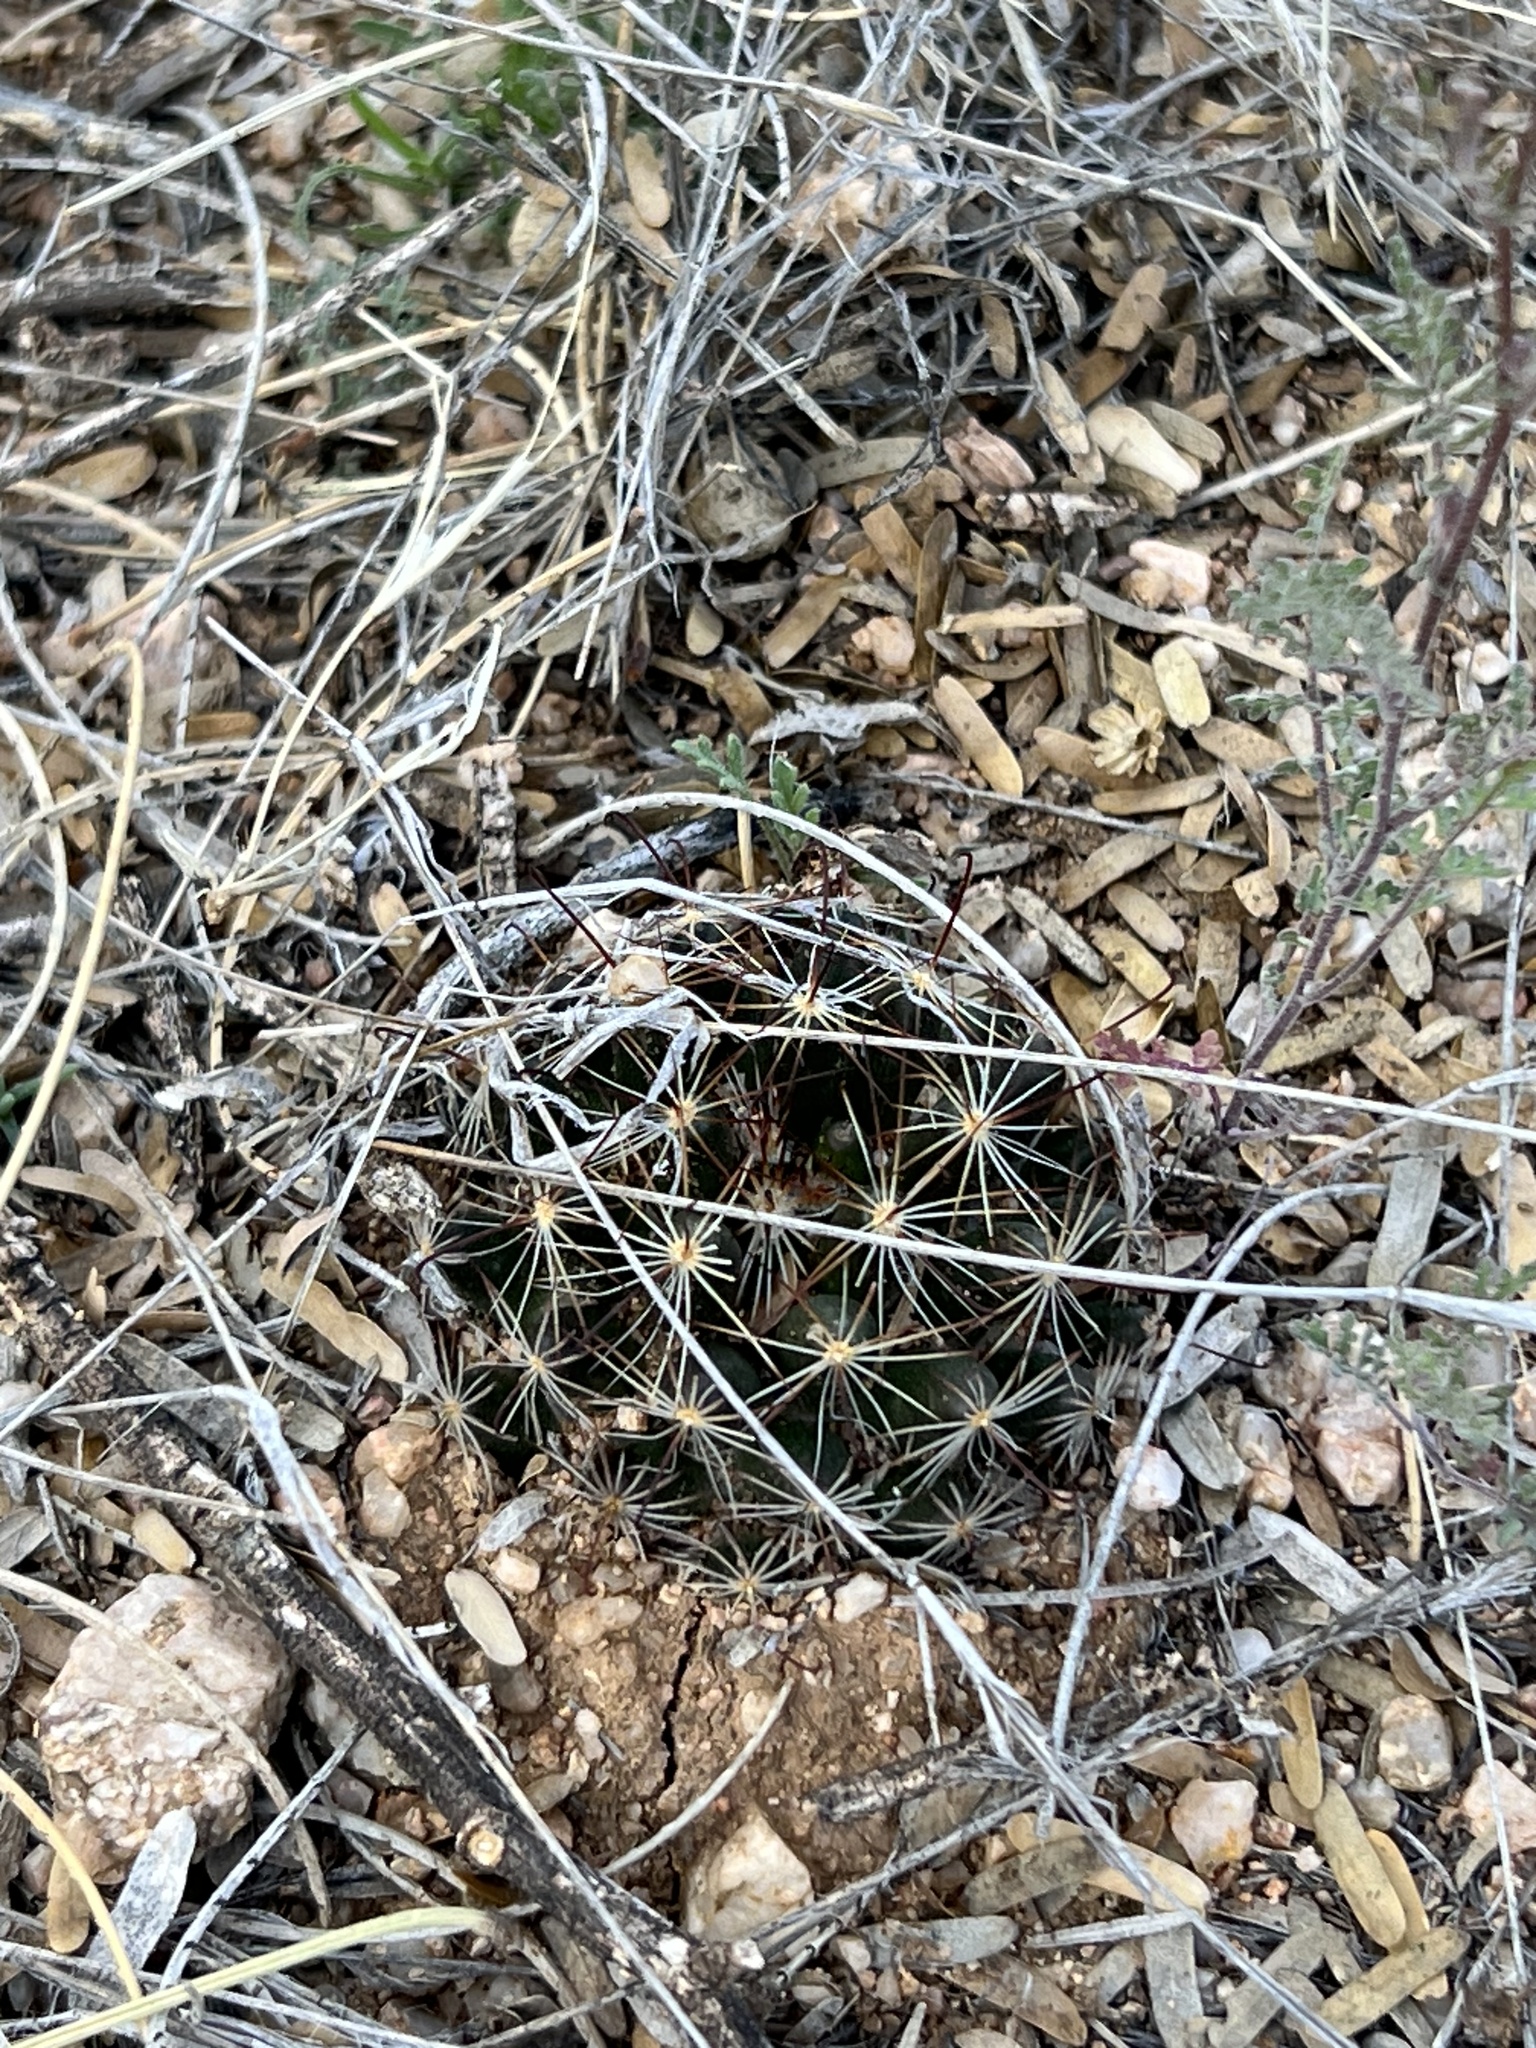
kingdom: Plantae
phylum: Tracheophyta
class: Magnoliopsida
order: Caryophyllales
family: Cactaceae
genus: Cochemiea
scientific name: Cochemiea wrightii
